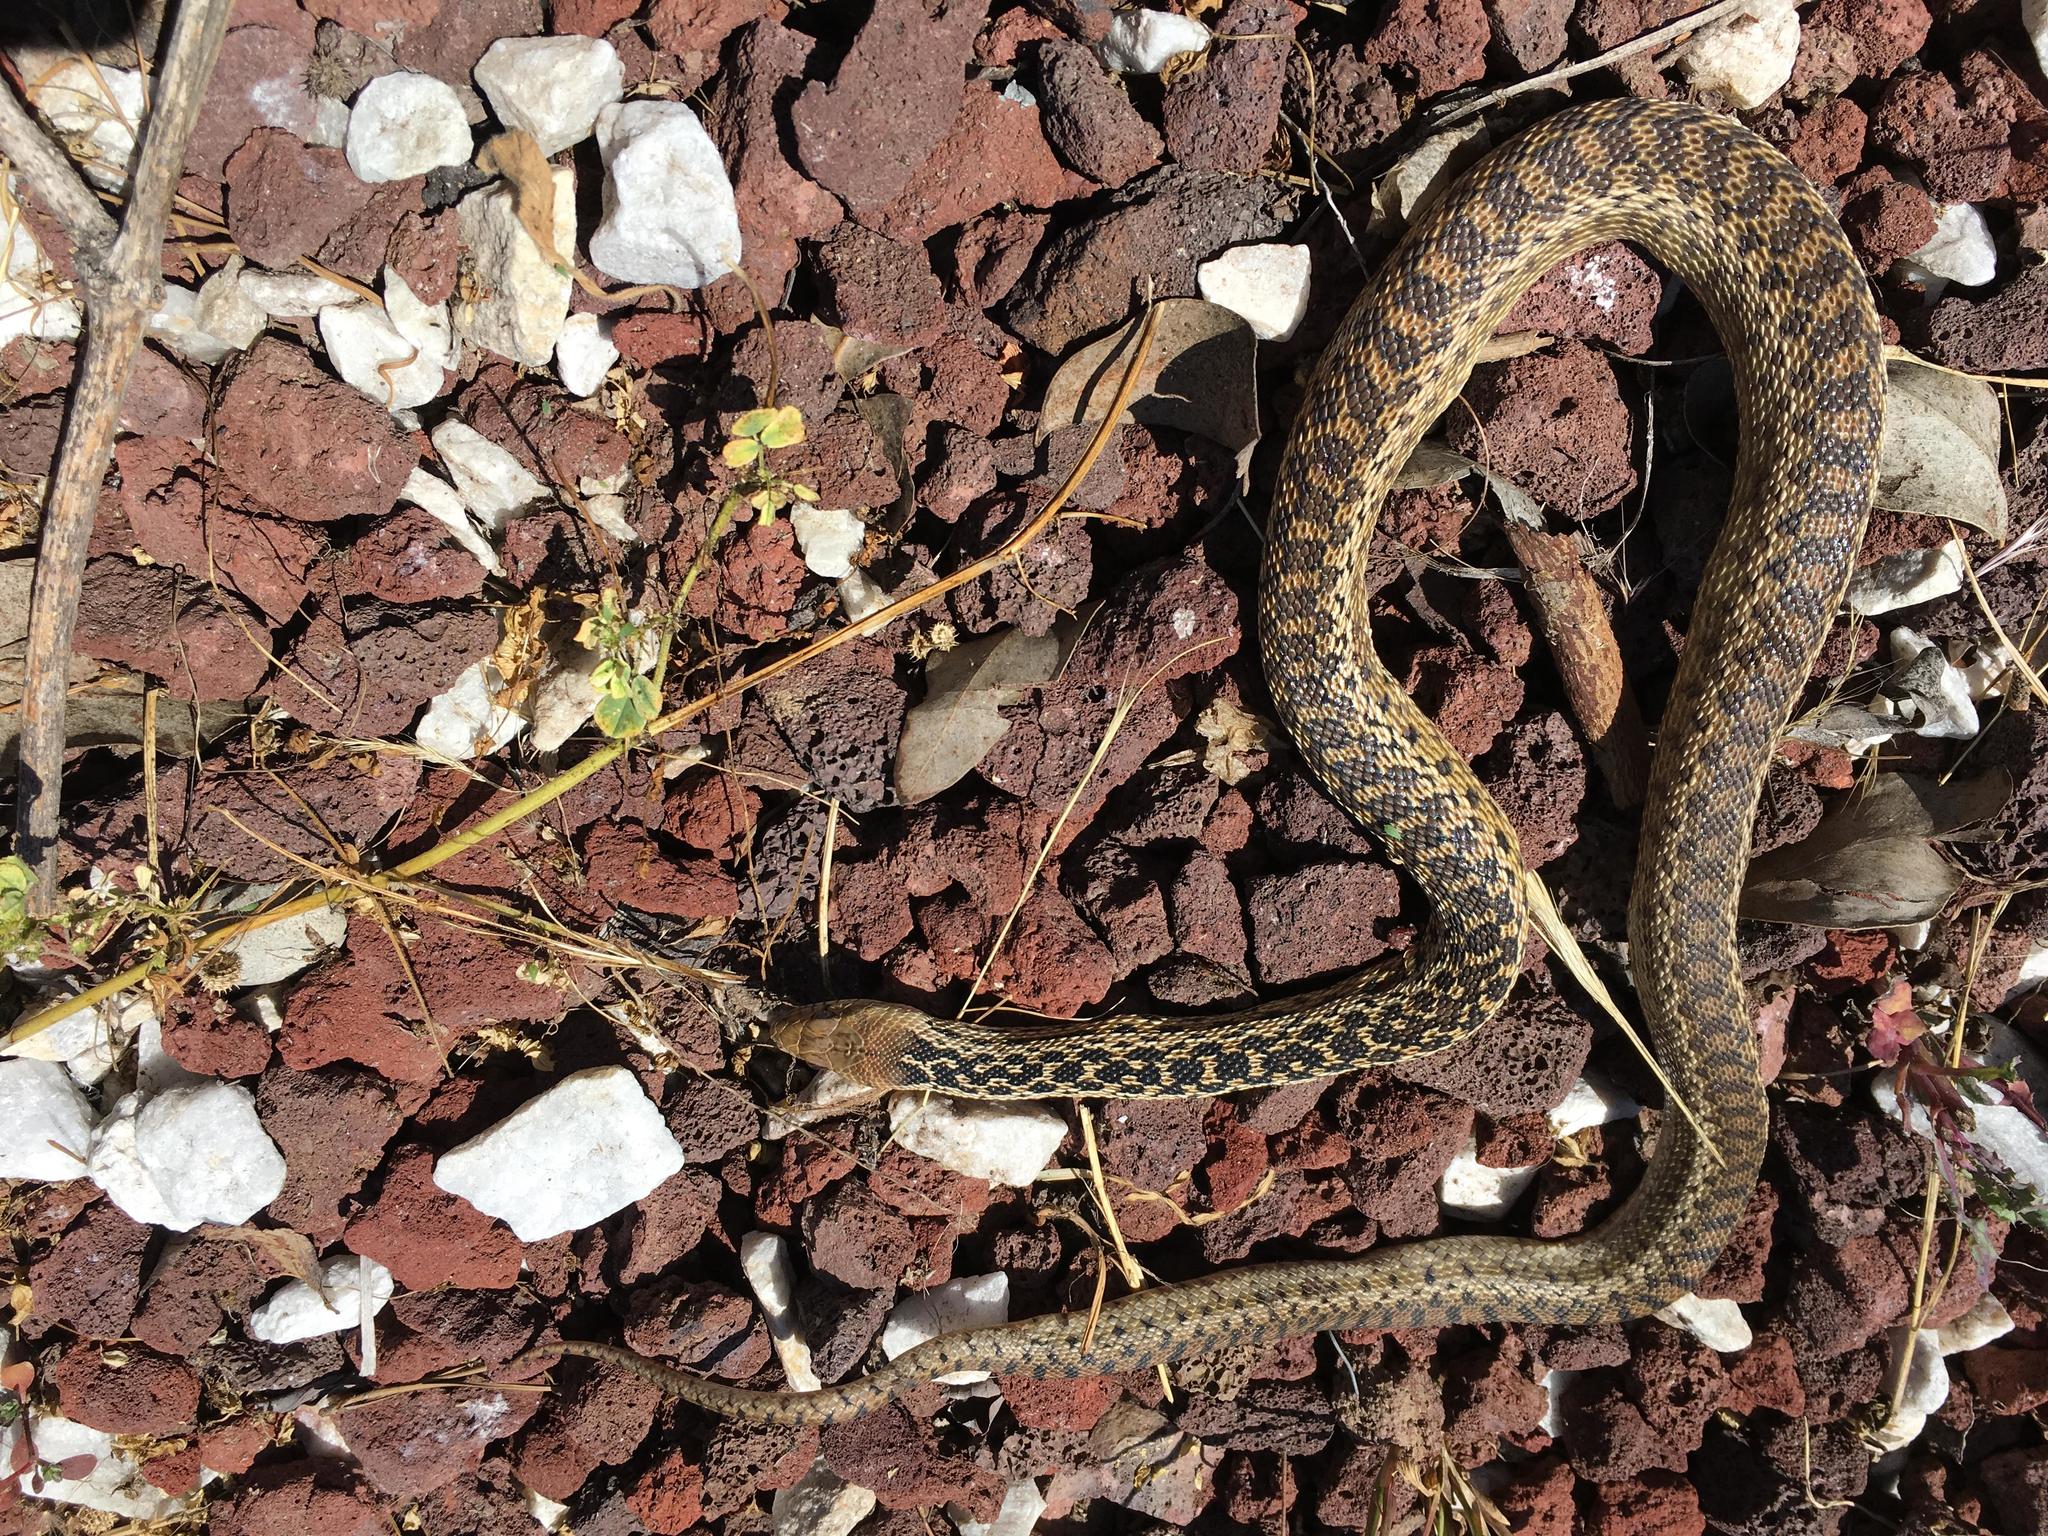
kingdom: Animalia
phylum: Chordata
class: Squamata
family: Colubridae
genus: Pituophis
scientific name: Pituophis catenifer
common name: Gopher snake
